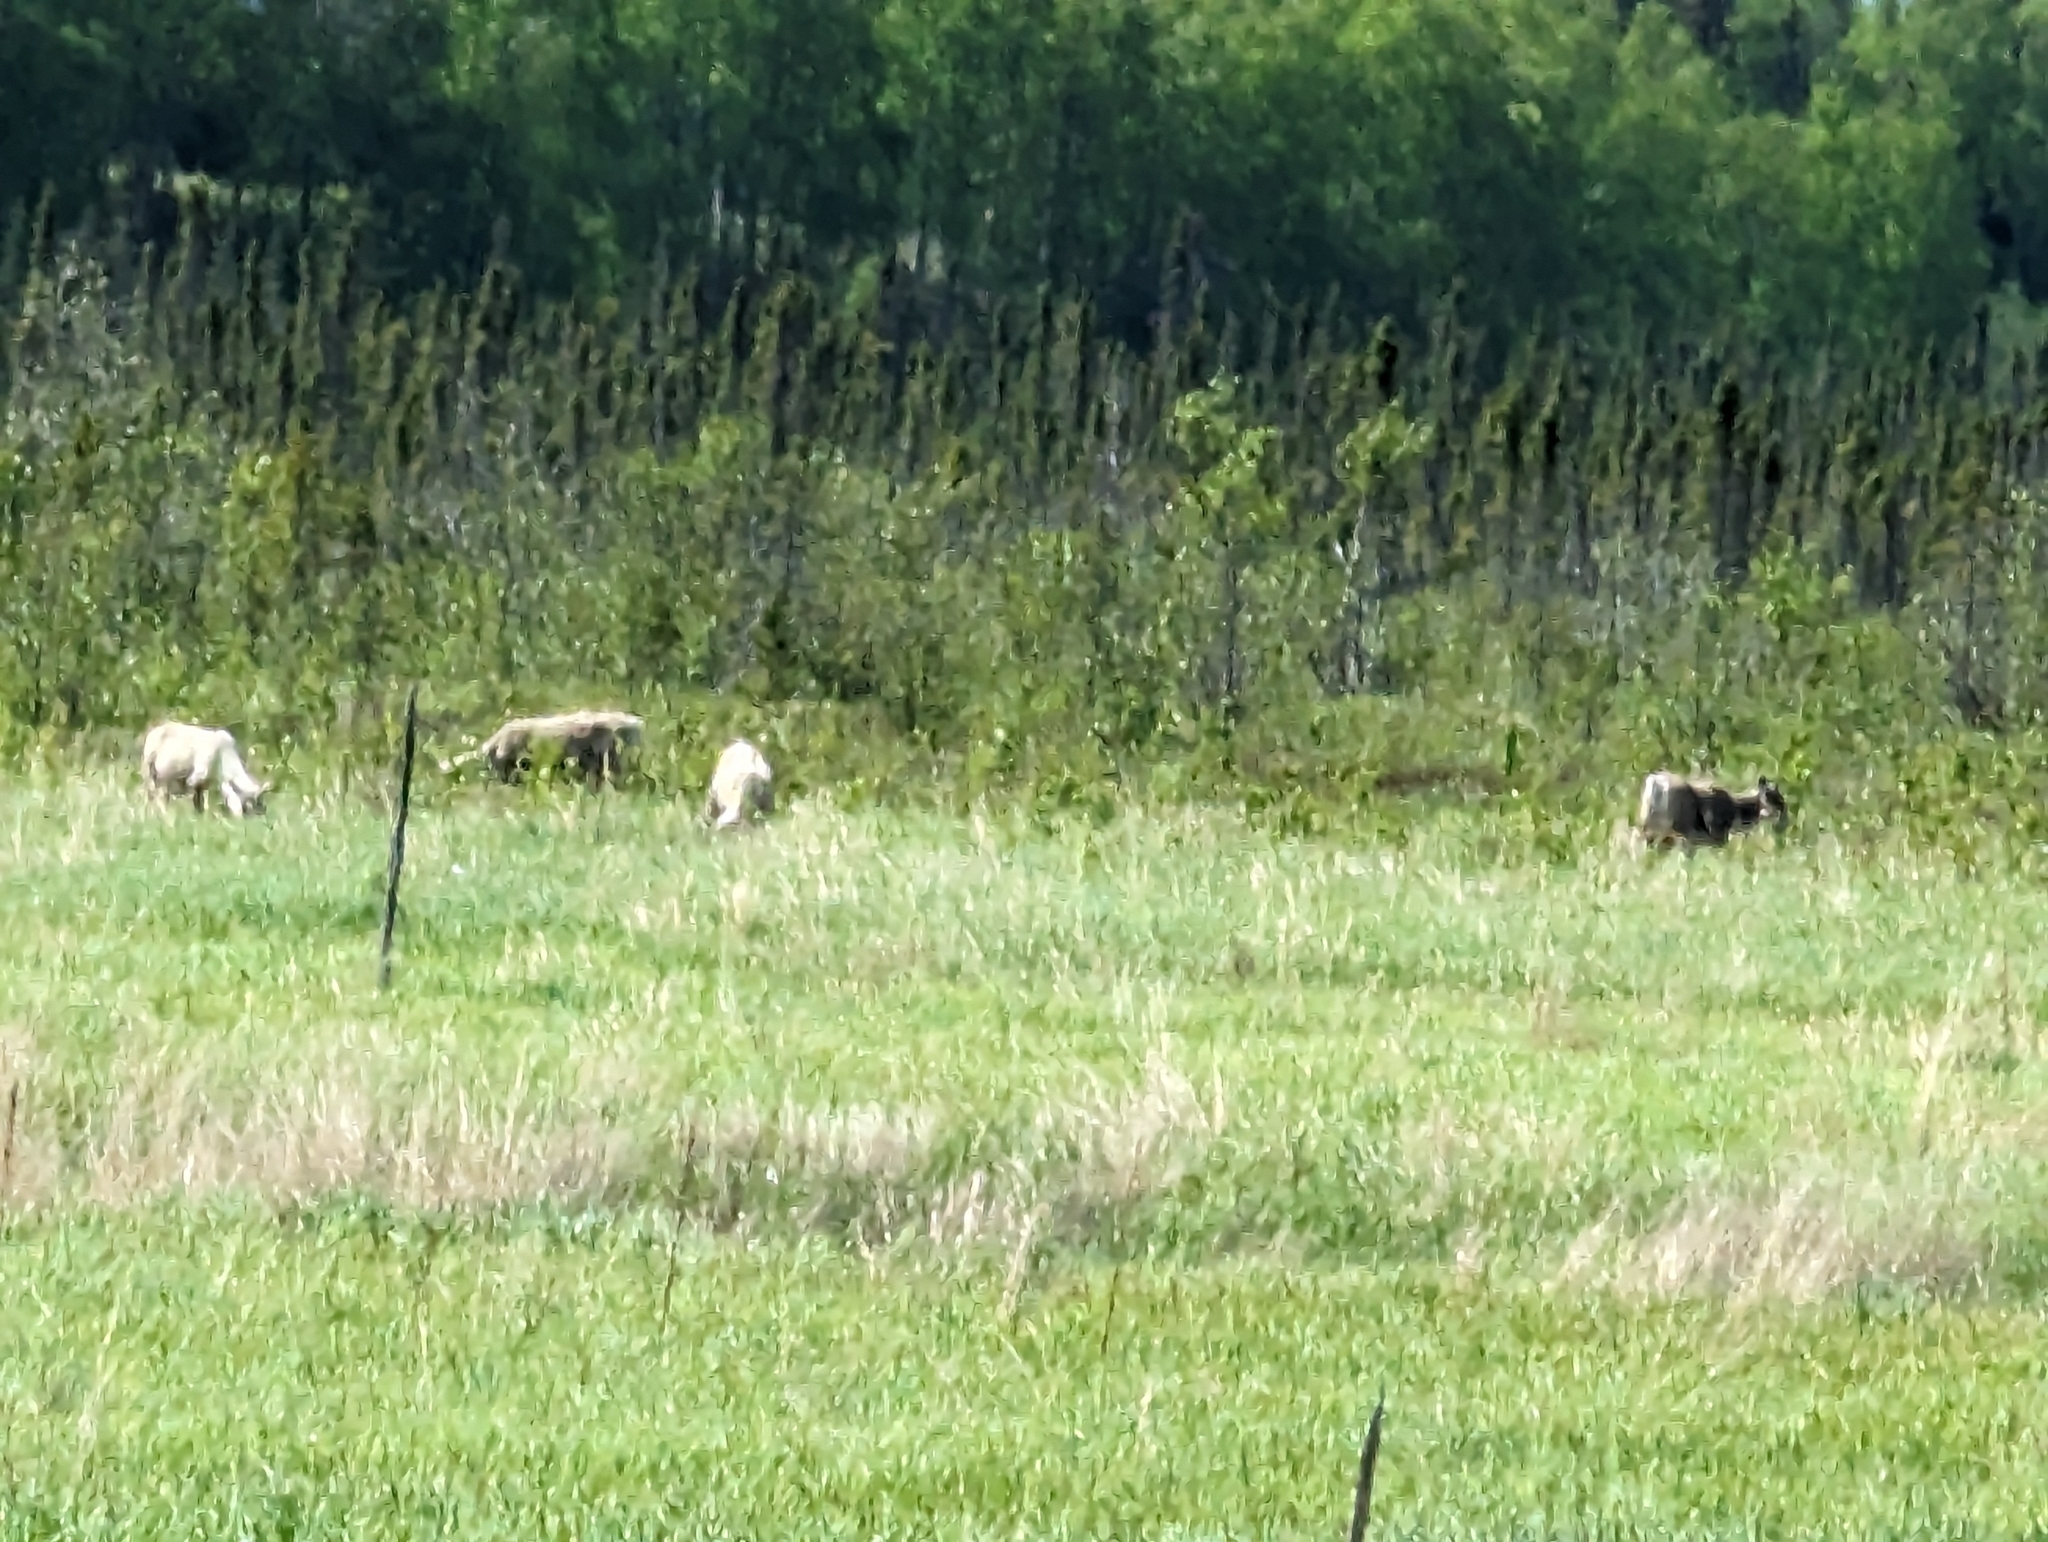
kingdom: Animalia
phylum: Chordata
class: Mammalia
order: Artiodactyla
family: Cervidae
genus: Rangifer
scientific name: Rangifer tarandus
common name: Reindeer
